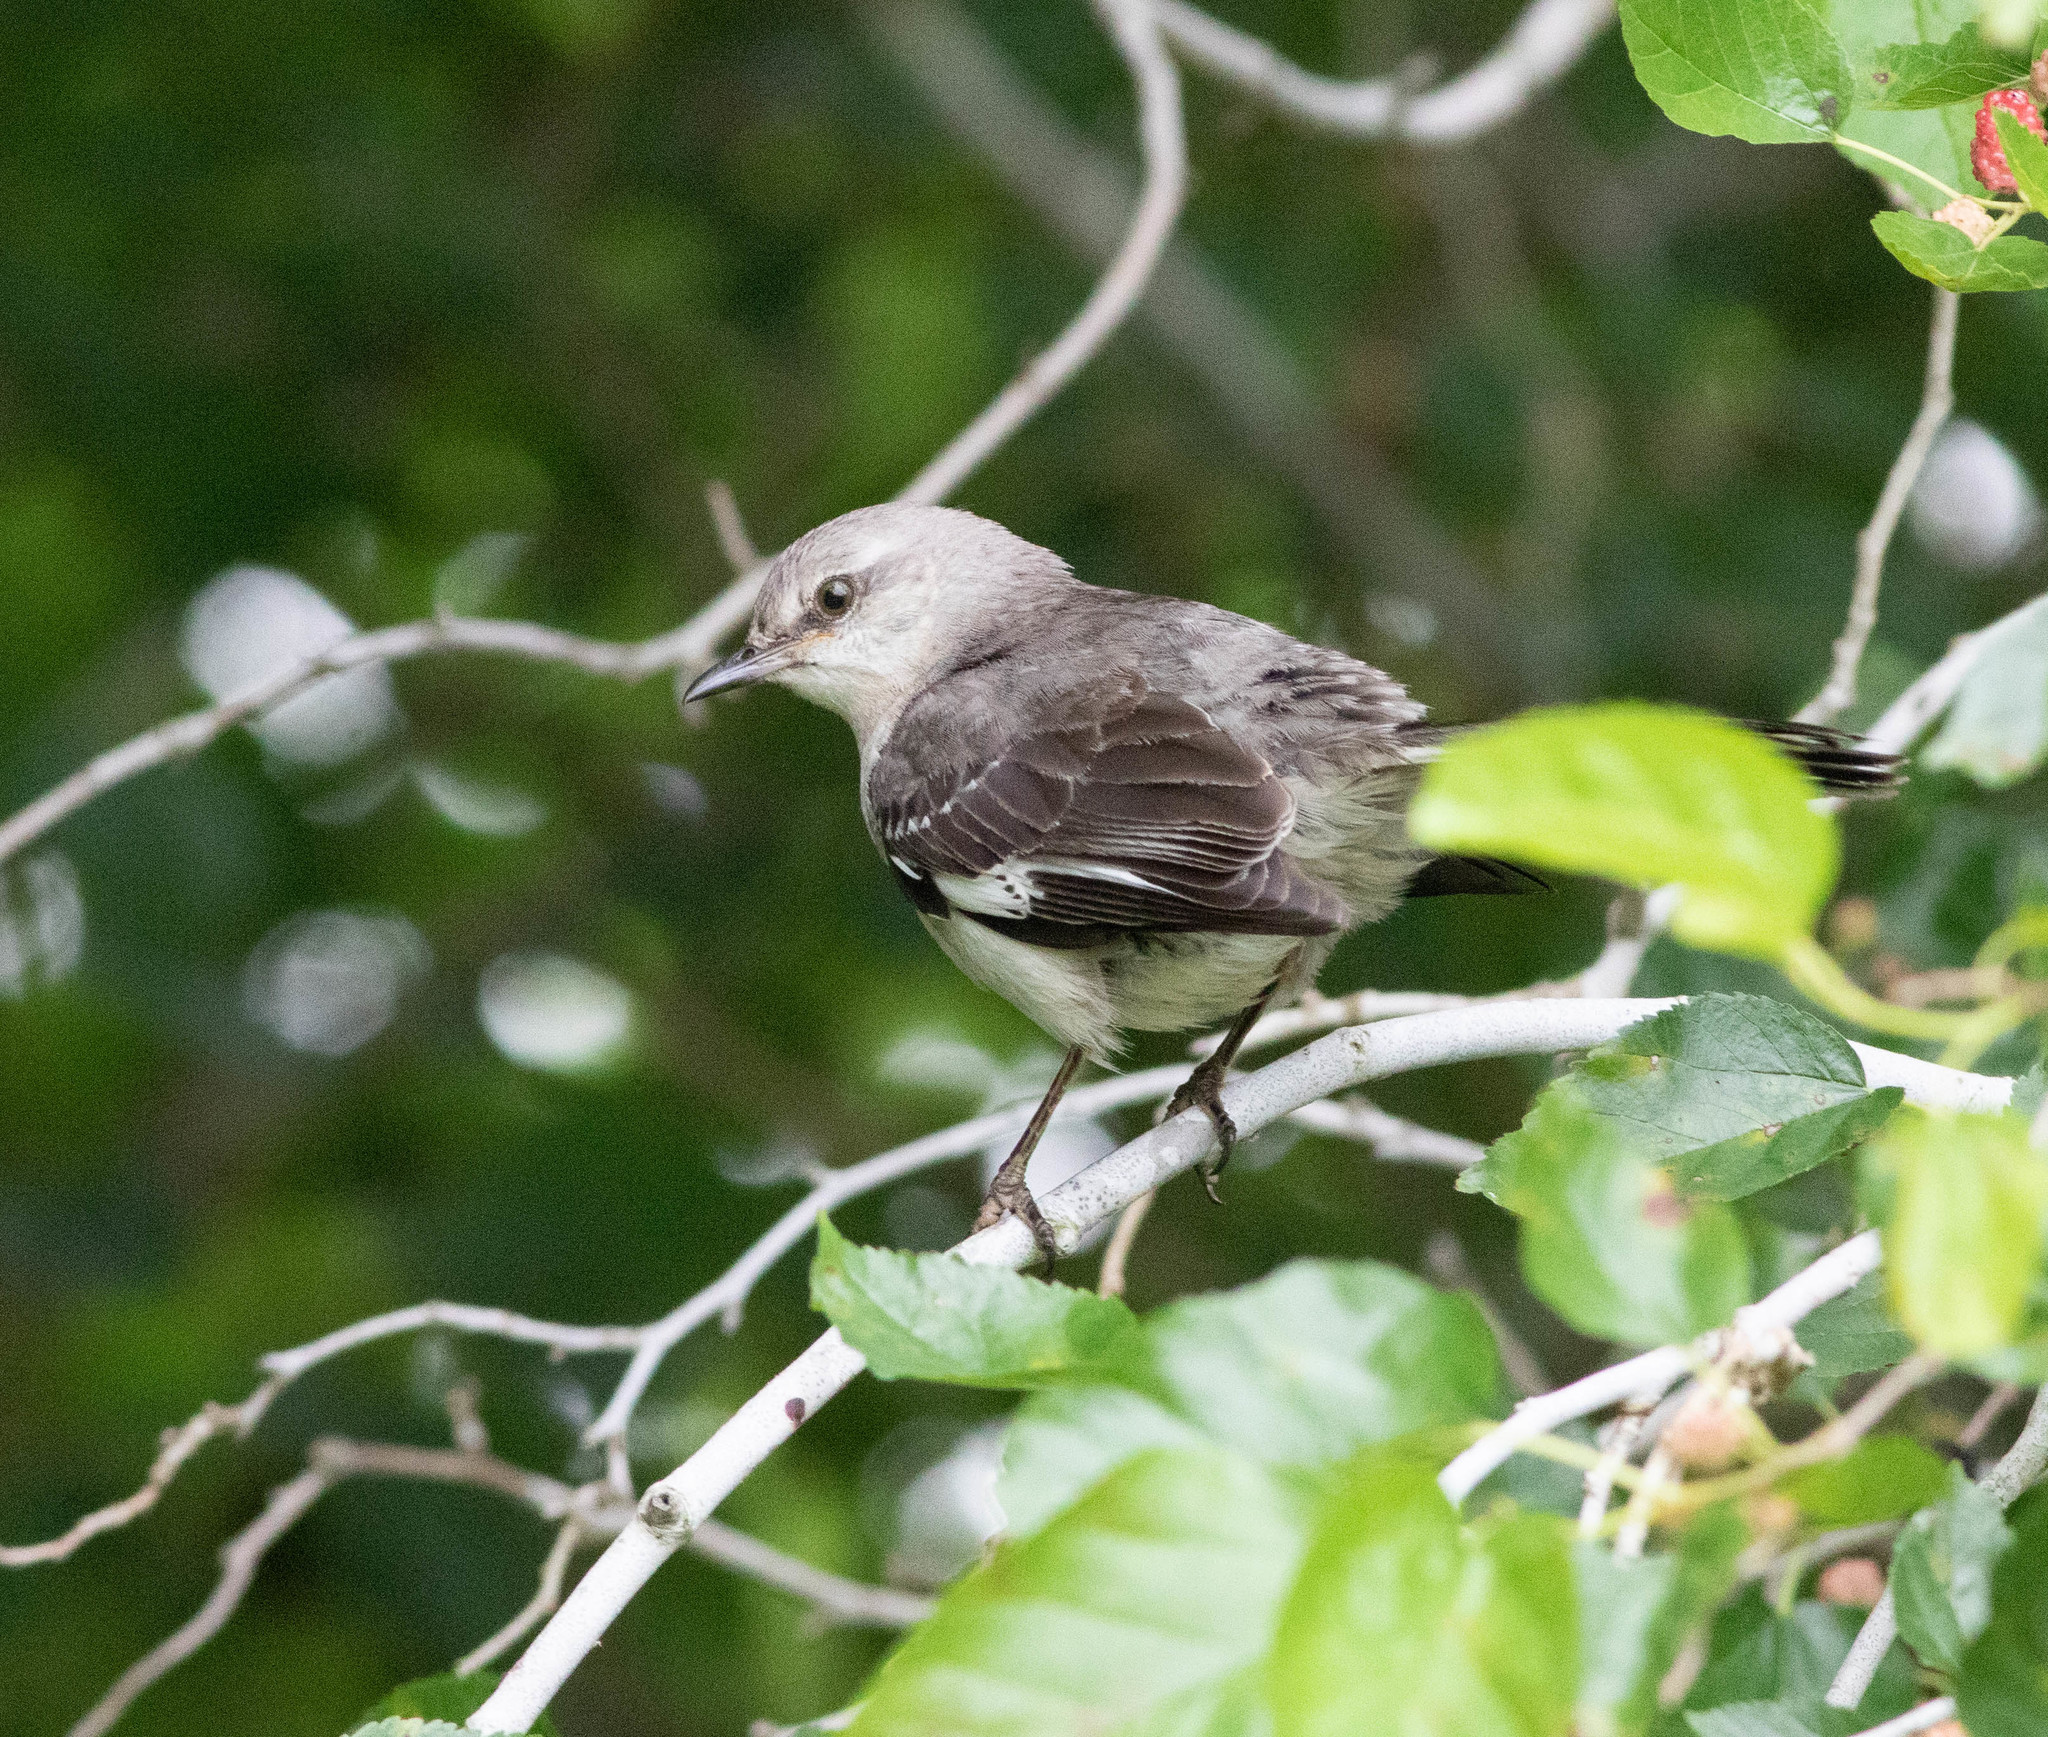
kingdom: Animalia
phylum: Chordata
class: Aves
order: Passeriformes
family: Mimidae
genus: Mimus
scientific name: Mimus polyglottos
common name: Northern mockingbird
